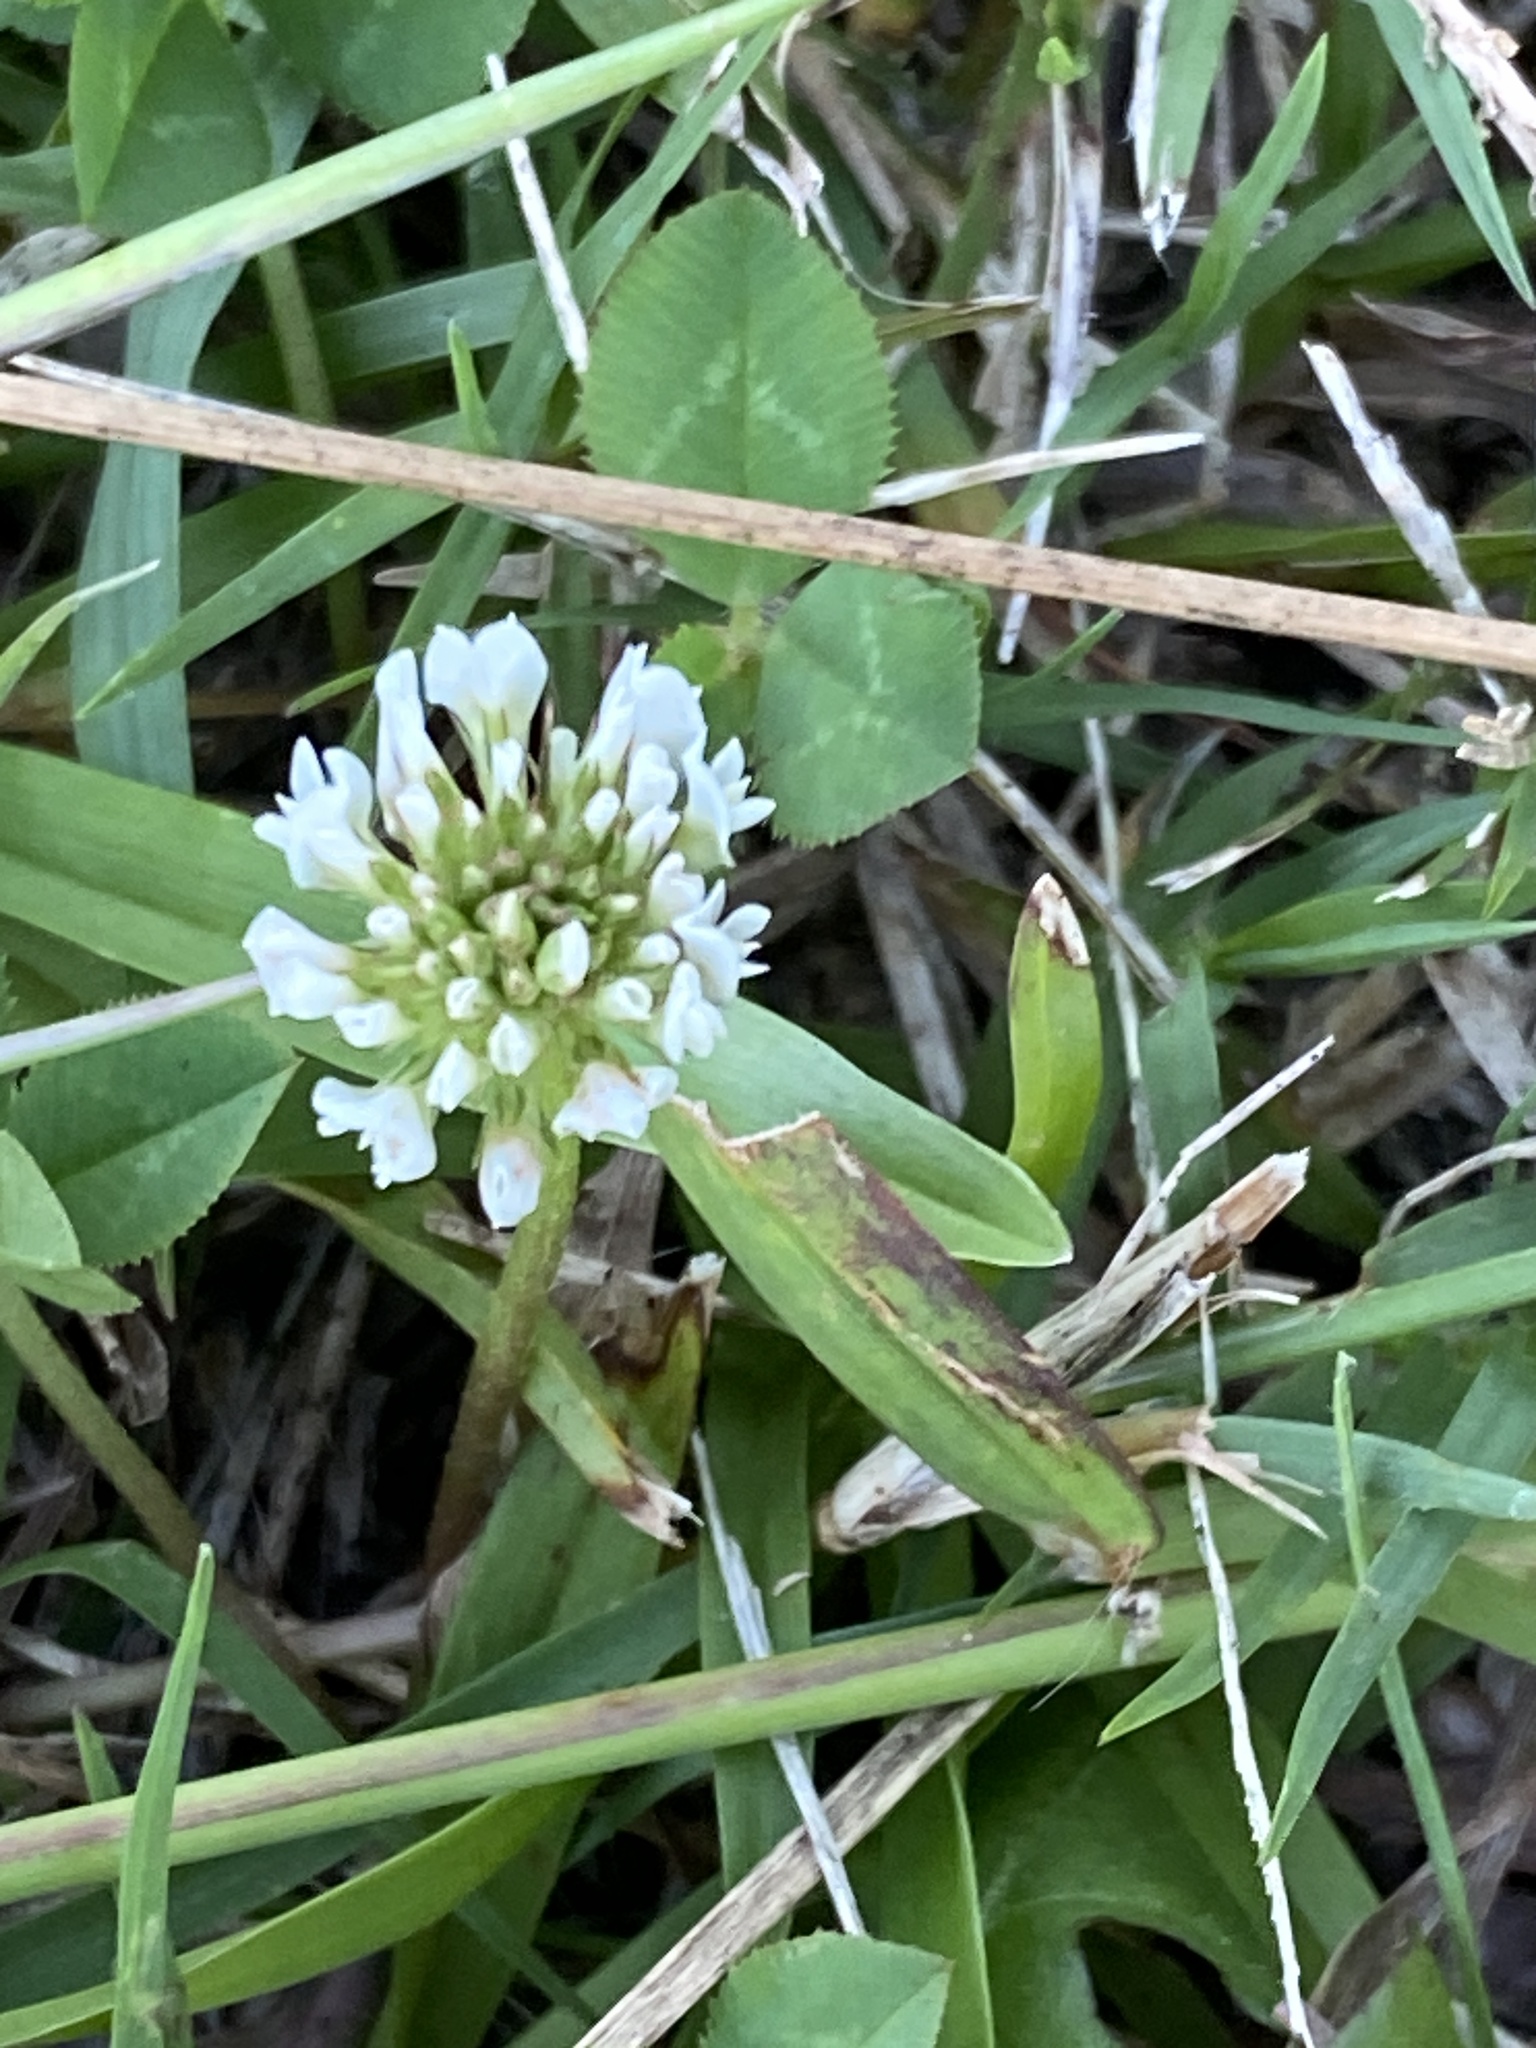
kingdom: Plantae
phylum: Tracheophyta
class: Magnoliopsida
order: Fabales
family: Fabaceae
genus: Trifolium
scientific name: Trifolium repens
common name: White clover
